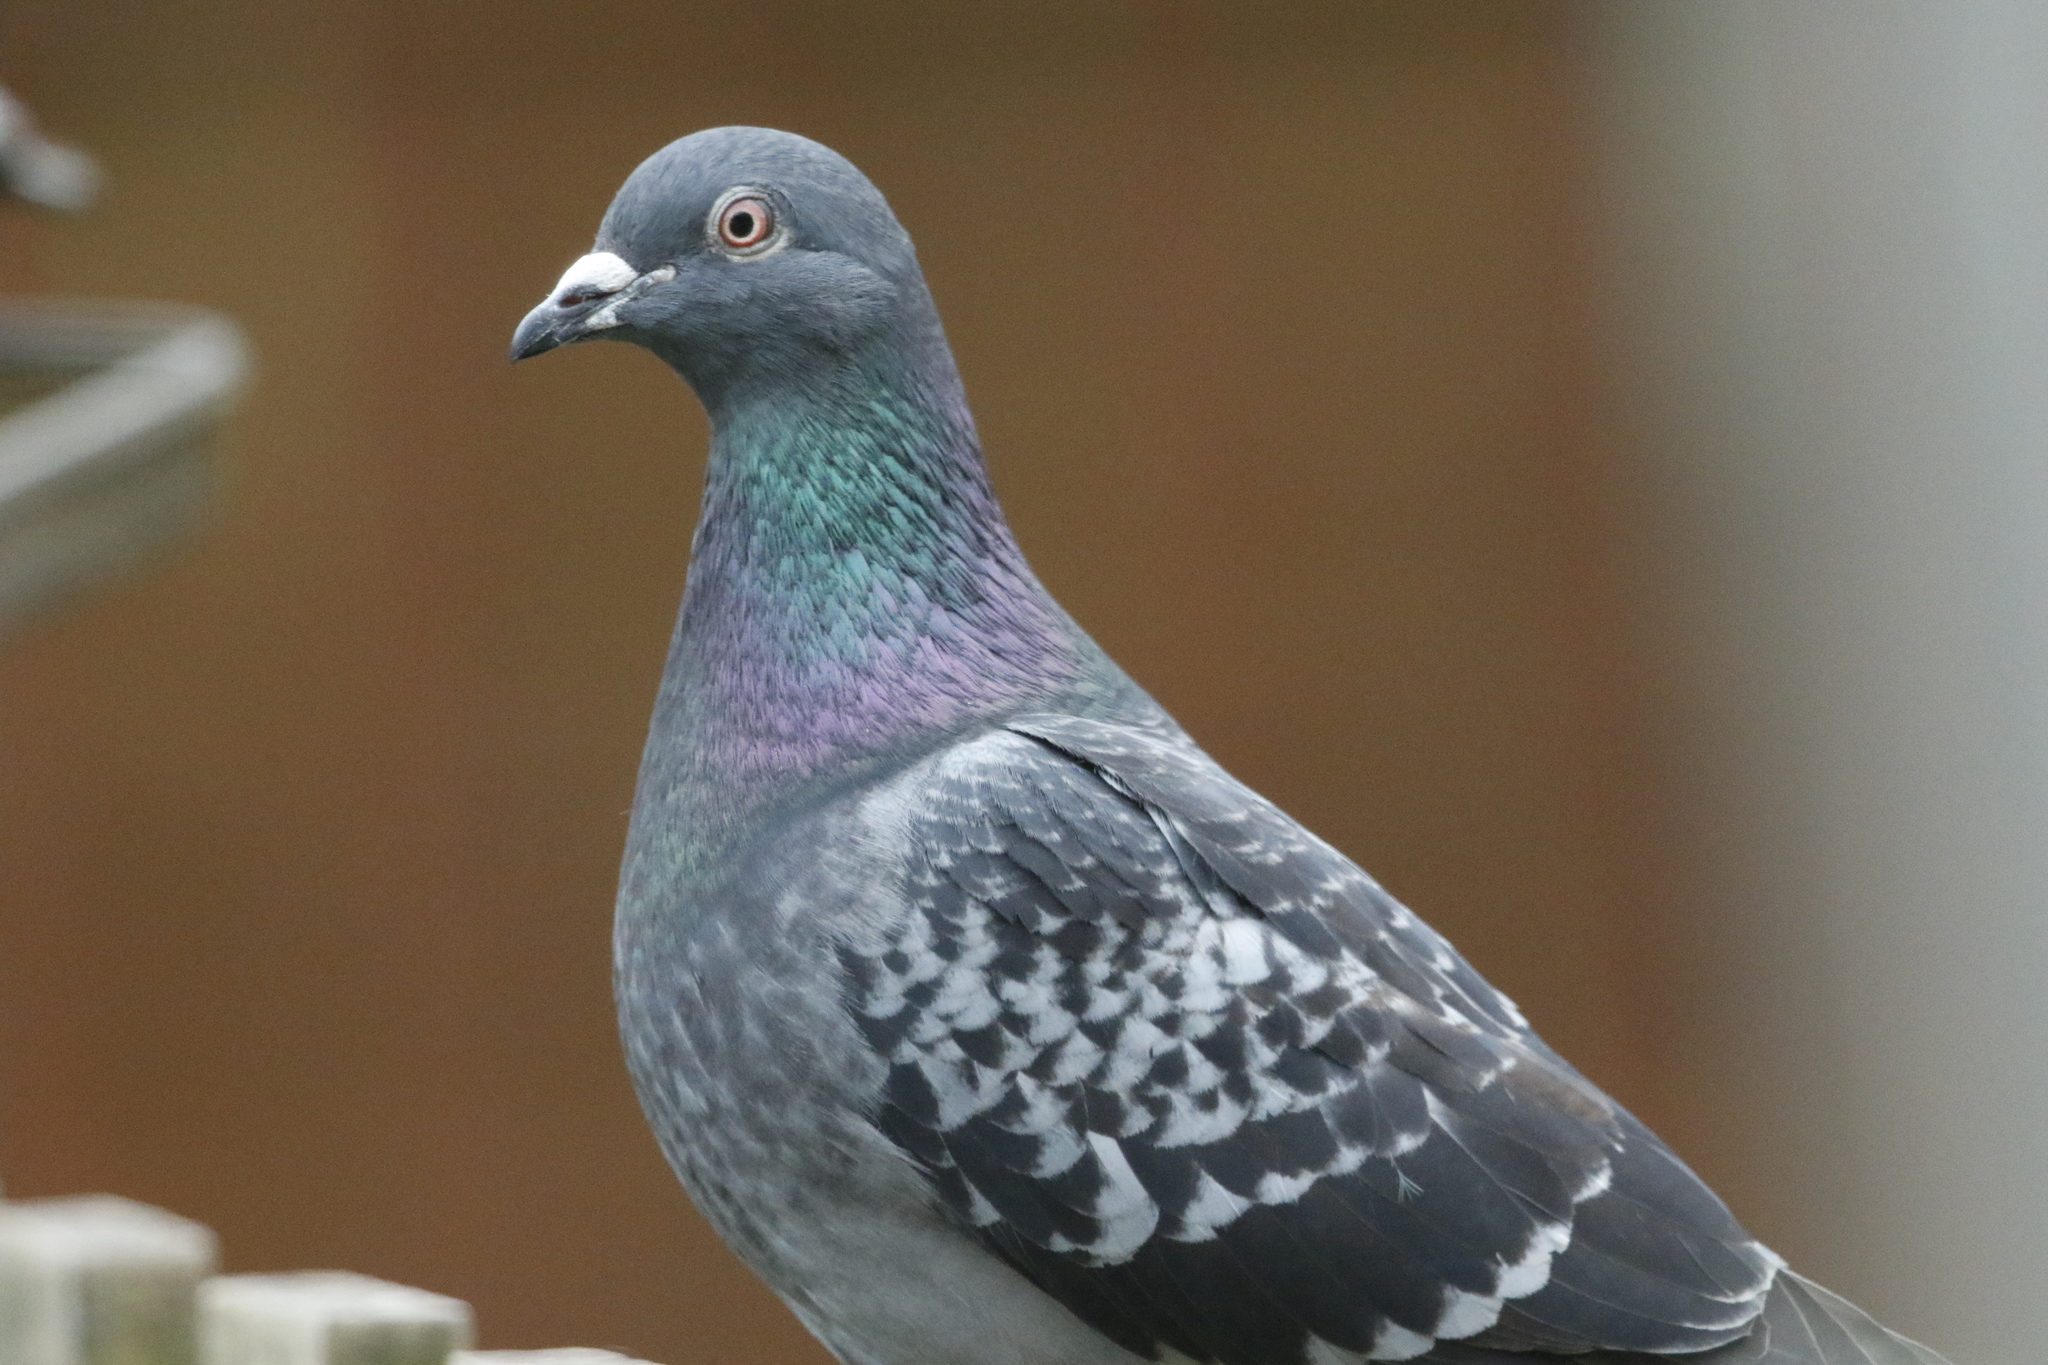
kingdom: Animalia
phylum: Chordata
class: Aves
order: Columbiformes
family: Columbidae
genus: Columba
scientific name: Columba livia
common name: Rock pigeon
